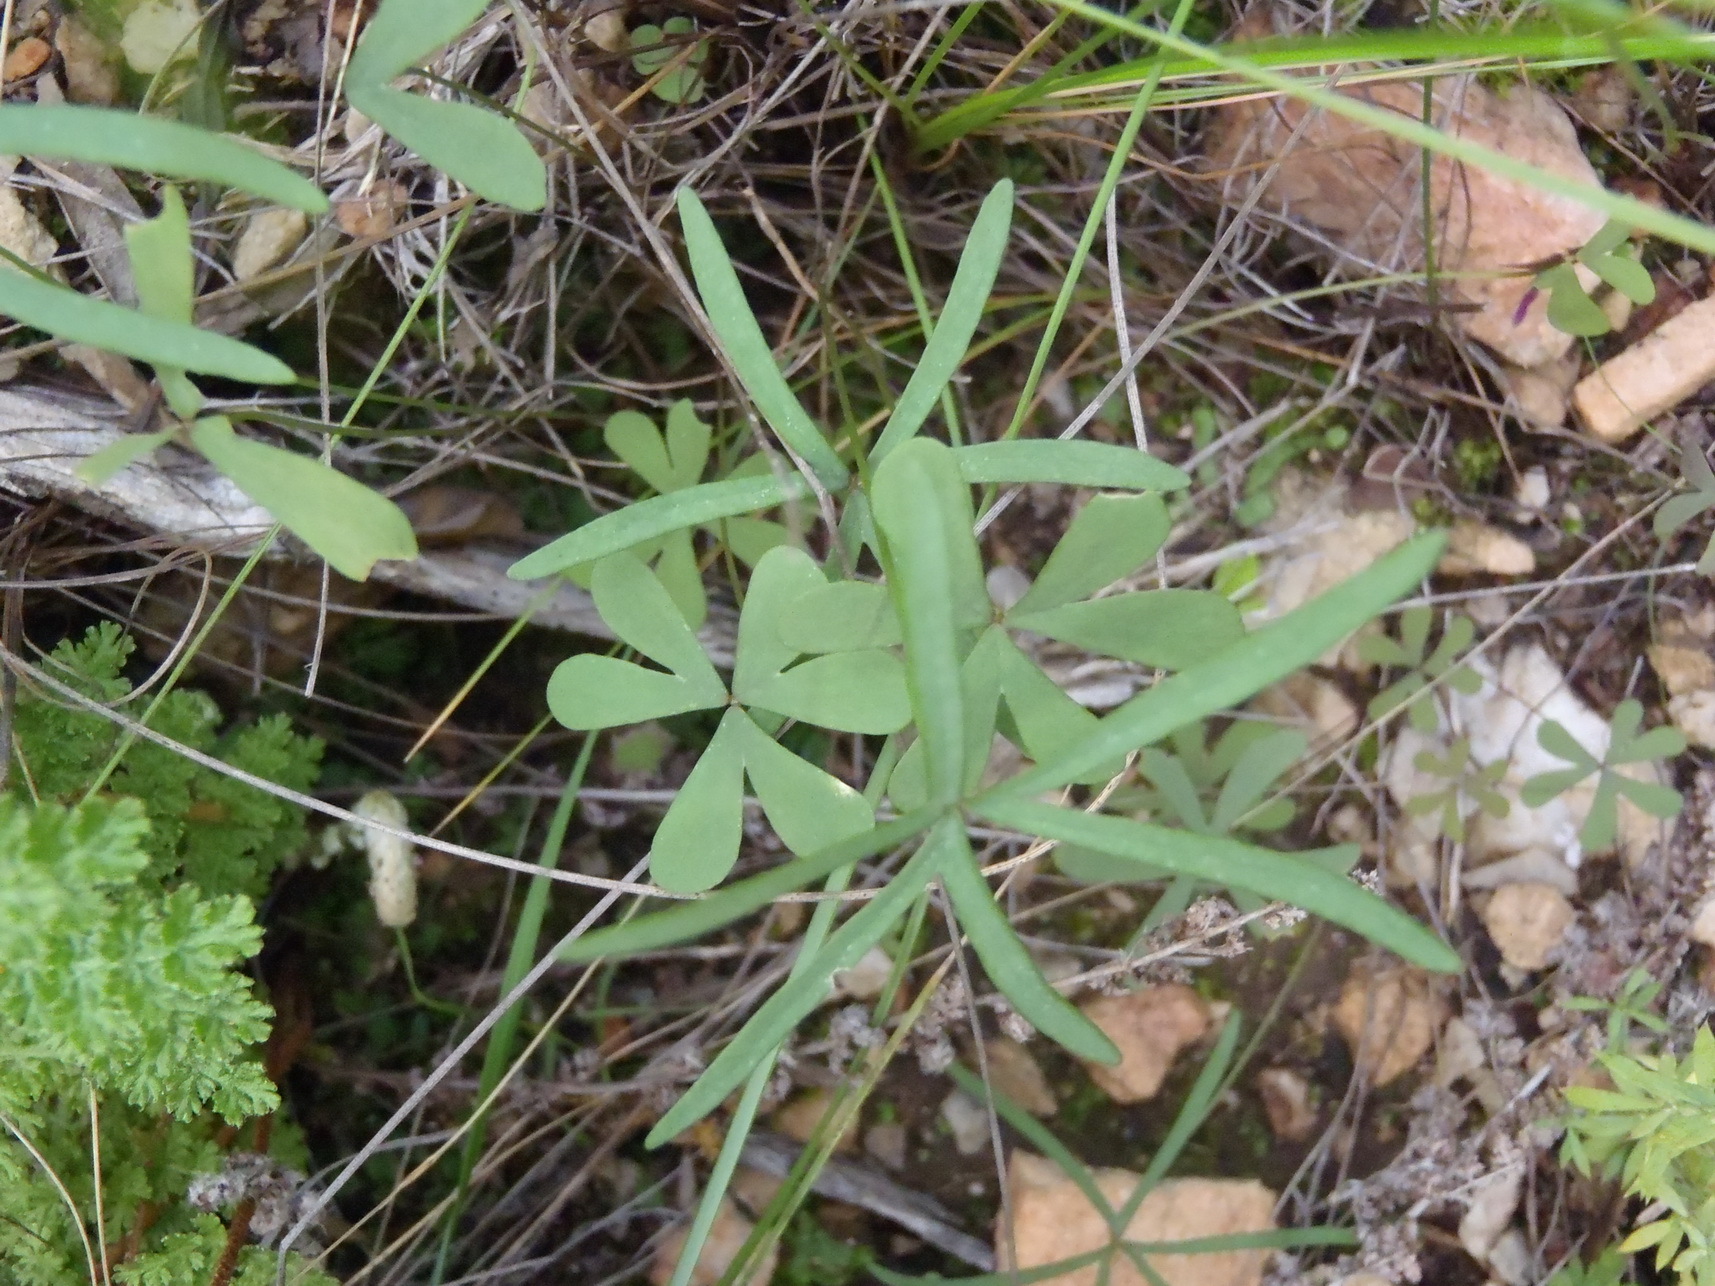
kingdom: Plantae
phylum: Tracheophyta
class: Magnoliopsida
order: Oxalidales
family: Oxalidaceae
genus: Oxalis
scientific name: Oxalis smithiana
